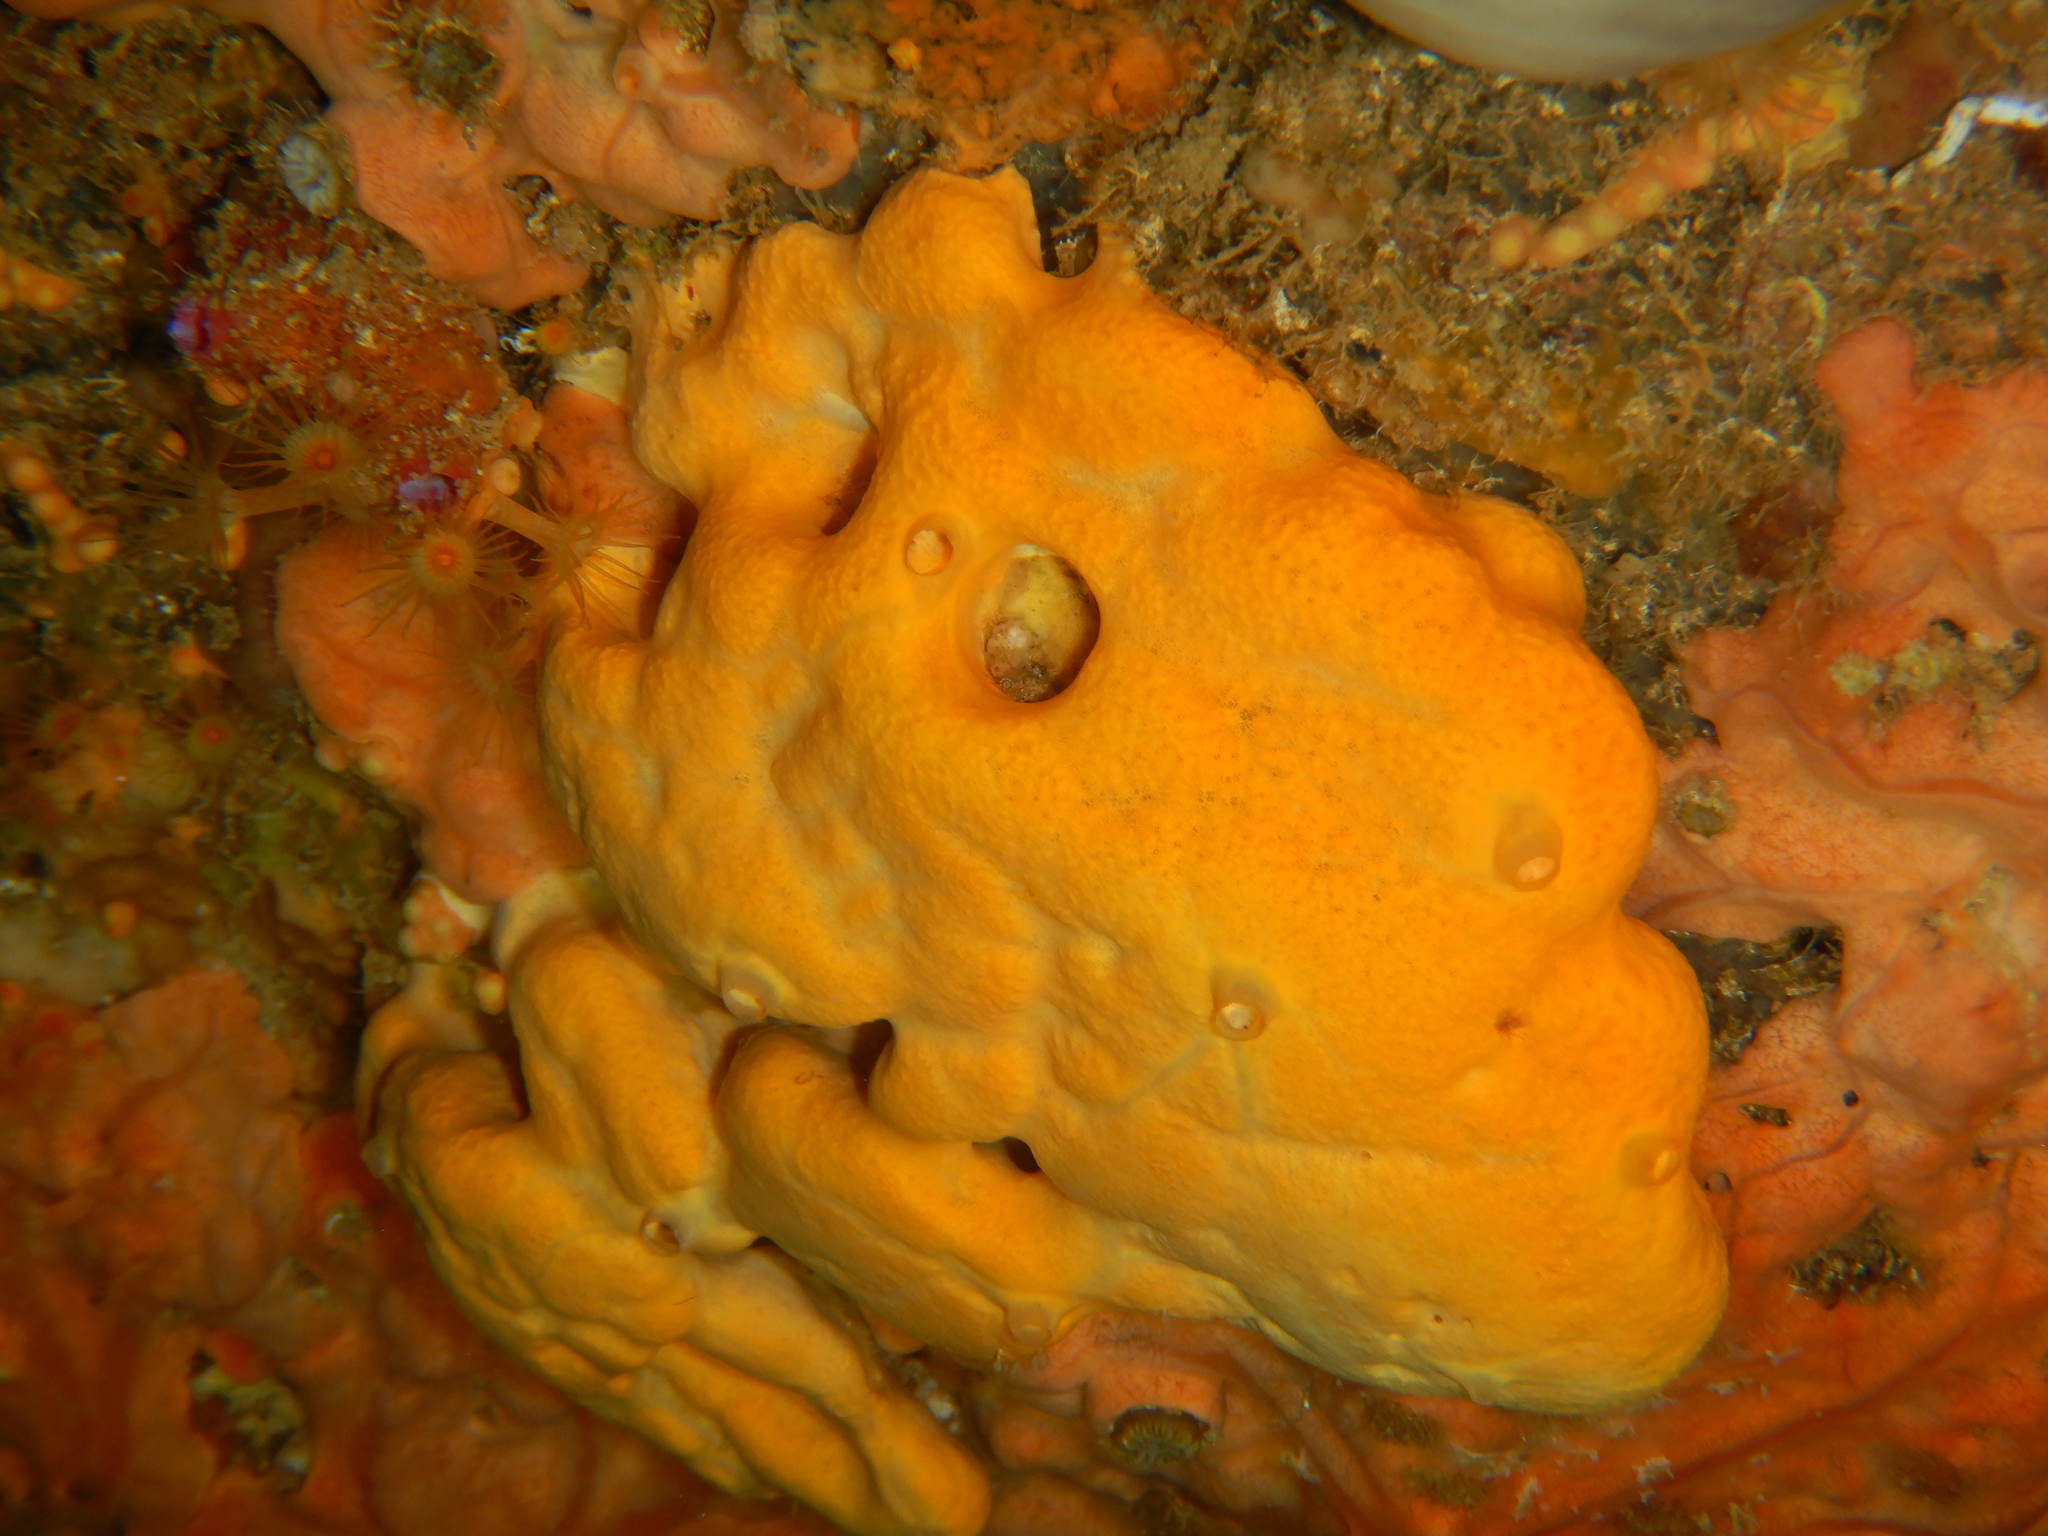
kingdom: Animalia
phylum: Porifera
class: Demospongiae
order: Agelasida
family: Agelasidae
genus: Agelas
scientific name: Agelas oroides
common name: Maltese sponge
